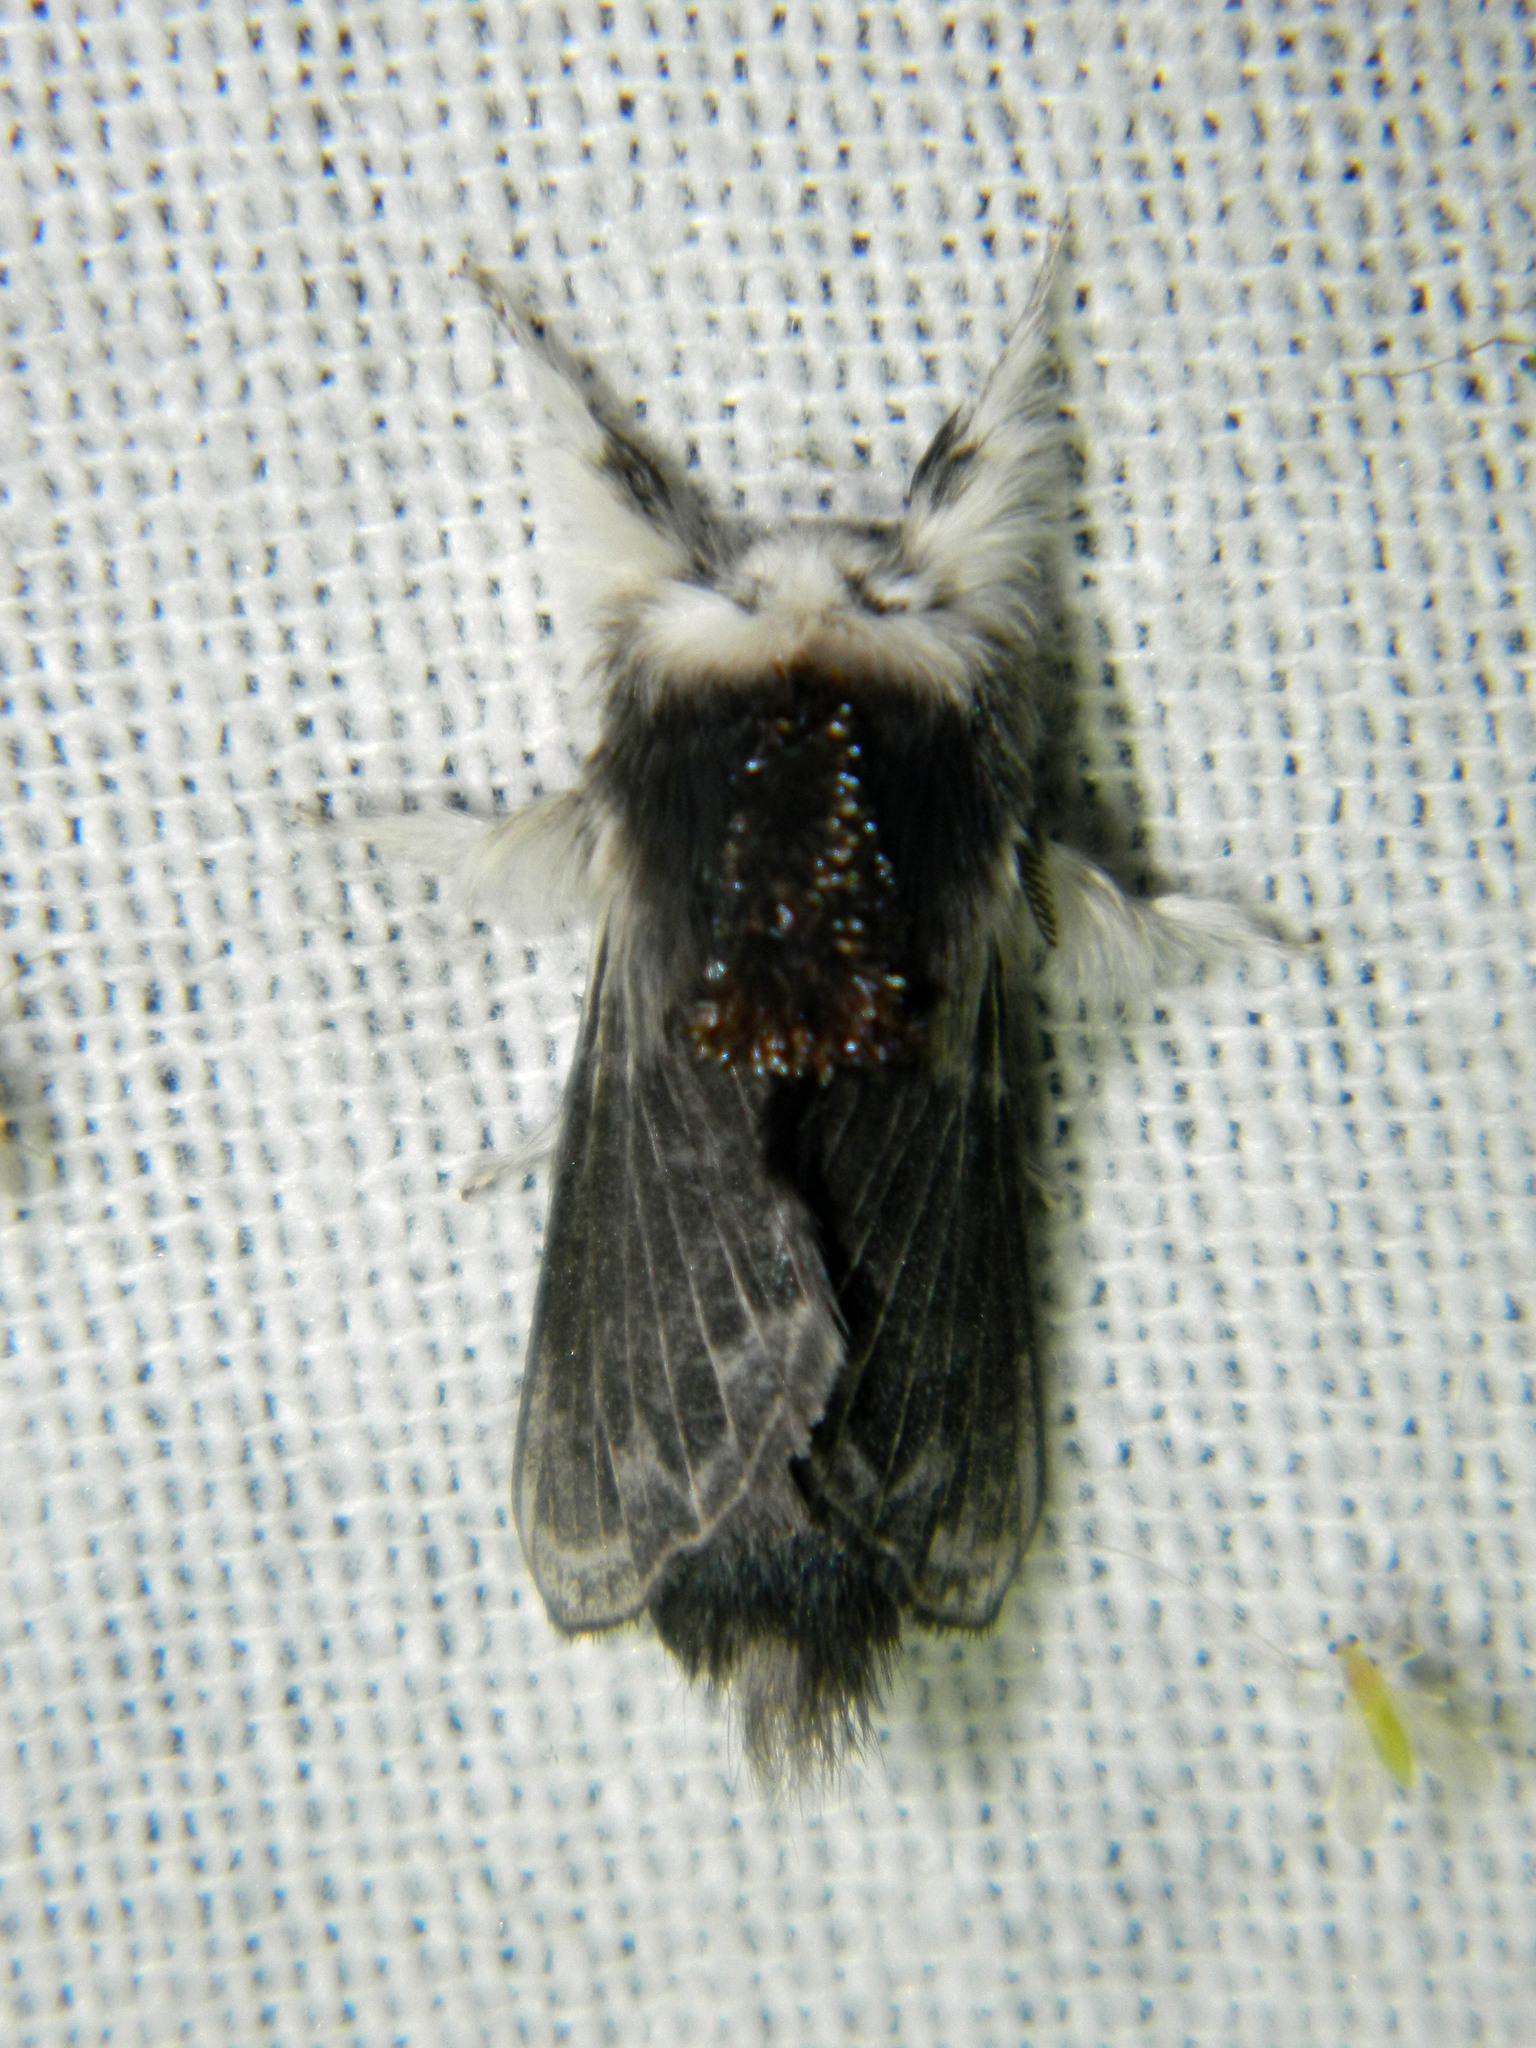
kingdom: Animalia
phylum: Arthropoda
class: Insecta
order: Lepidoptera
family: Lasiocampidae
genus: Tolype
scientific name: Tolype laricis
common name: Larch tolype moth
